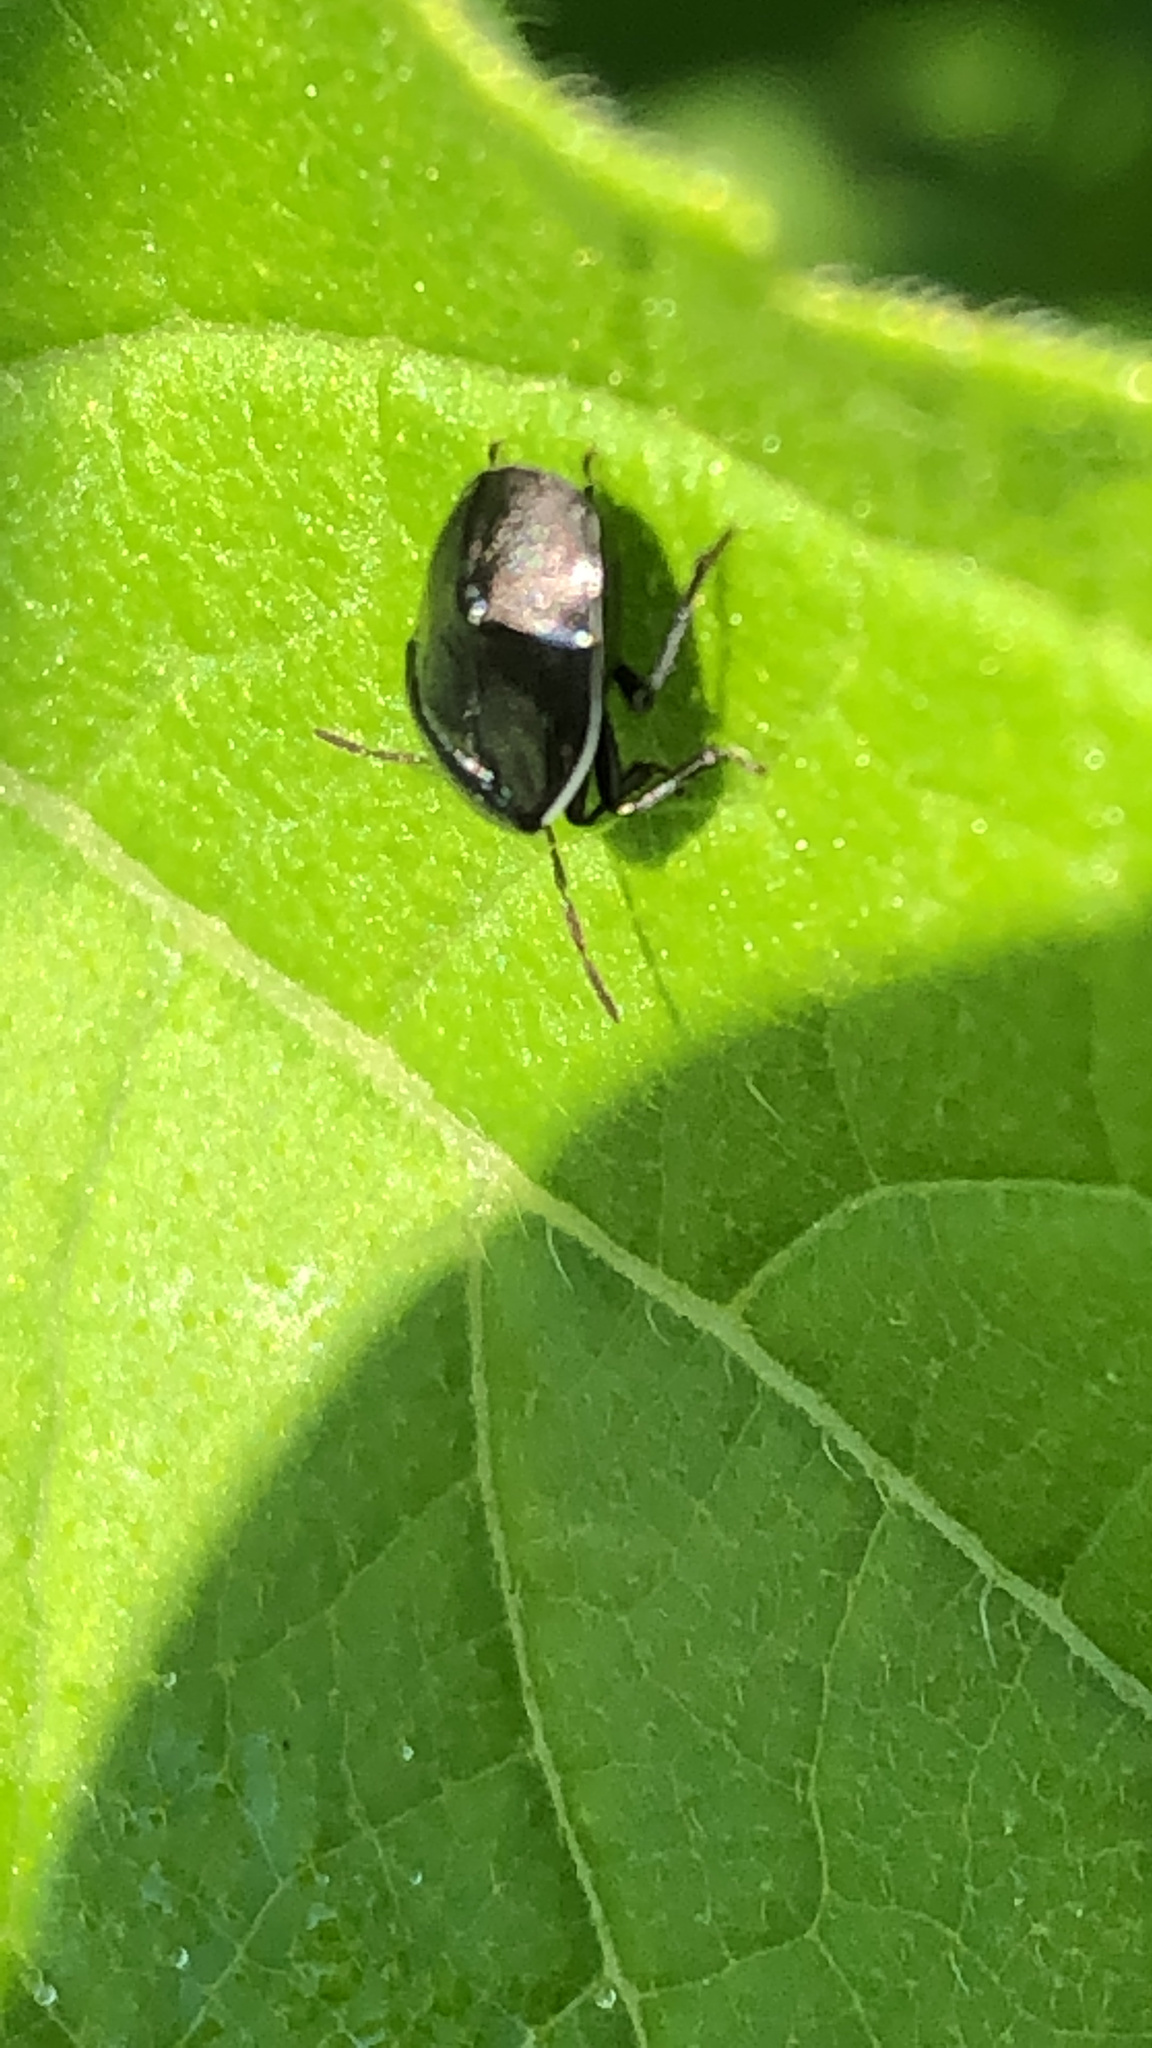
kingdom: Animalia
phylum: Arthropoda
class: Insecta
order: Hemiptera
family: Cydnidae
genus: Sehirus
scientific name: Sehirus cinctus
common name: White-margined burrower bug
